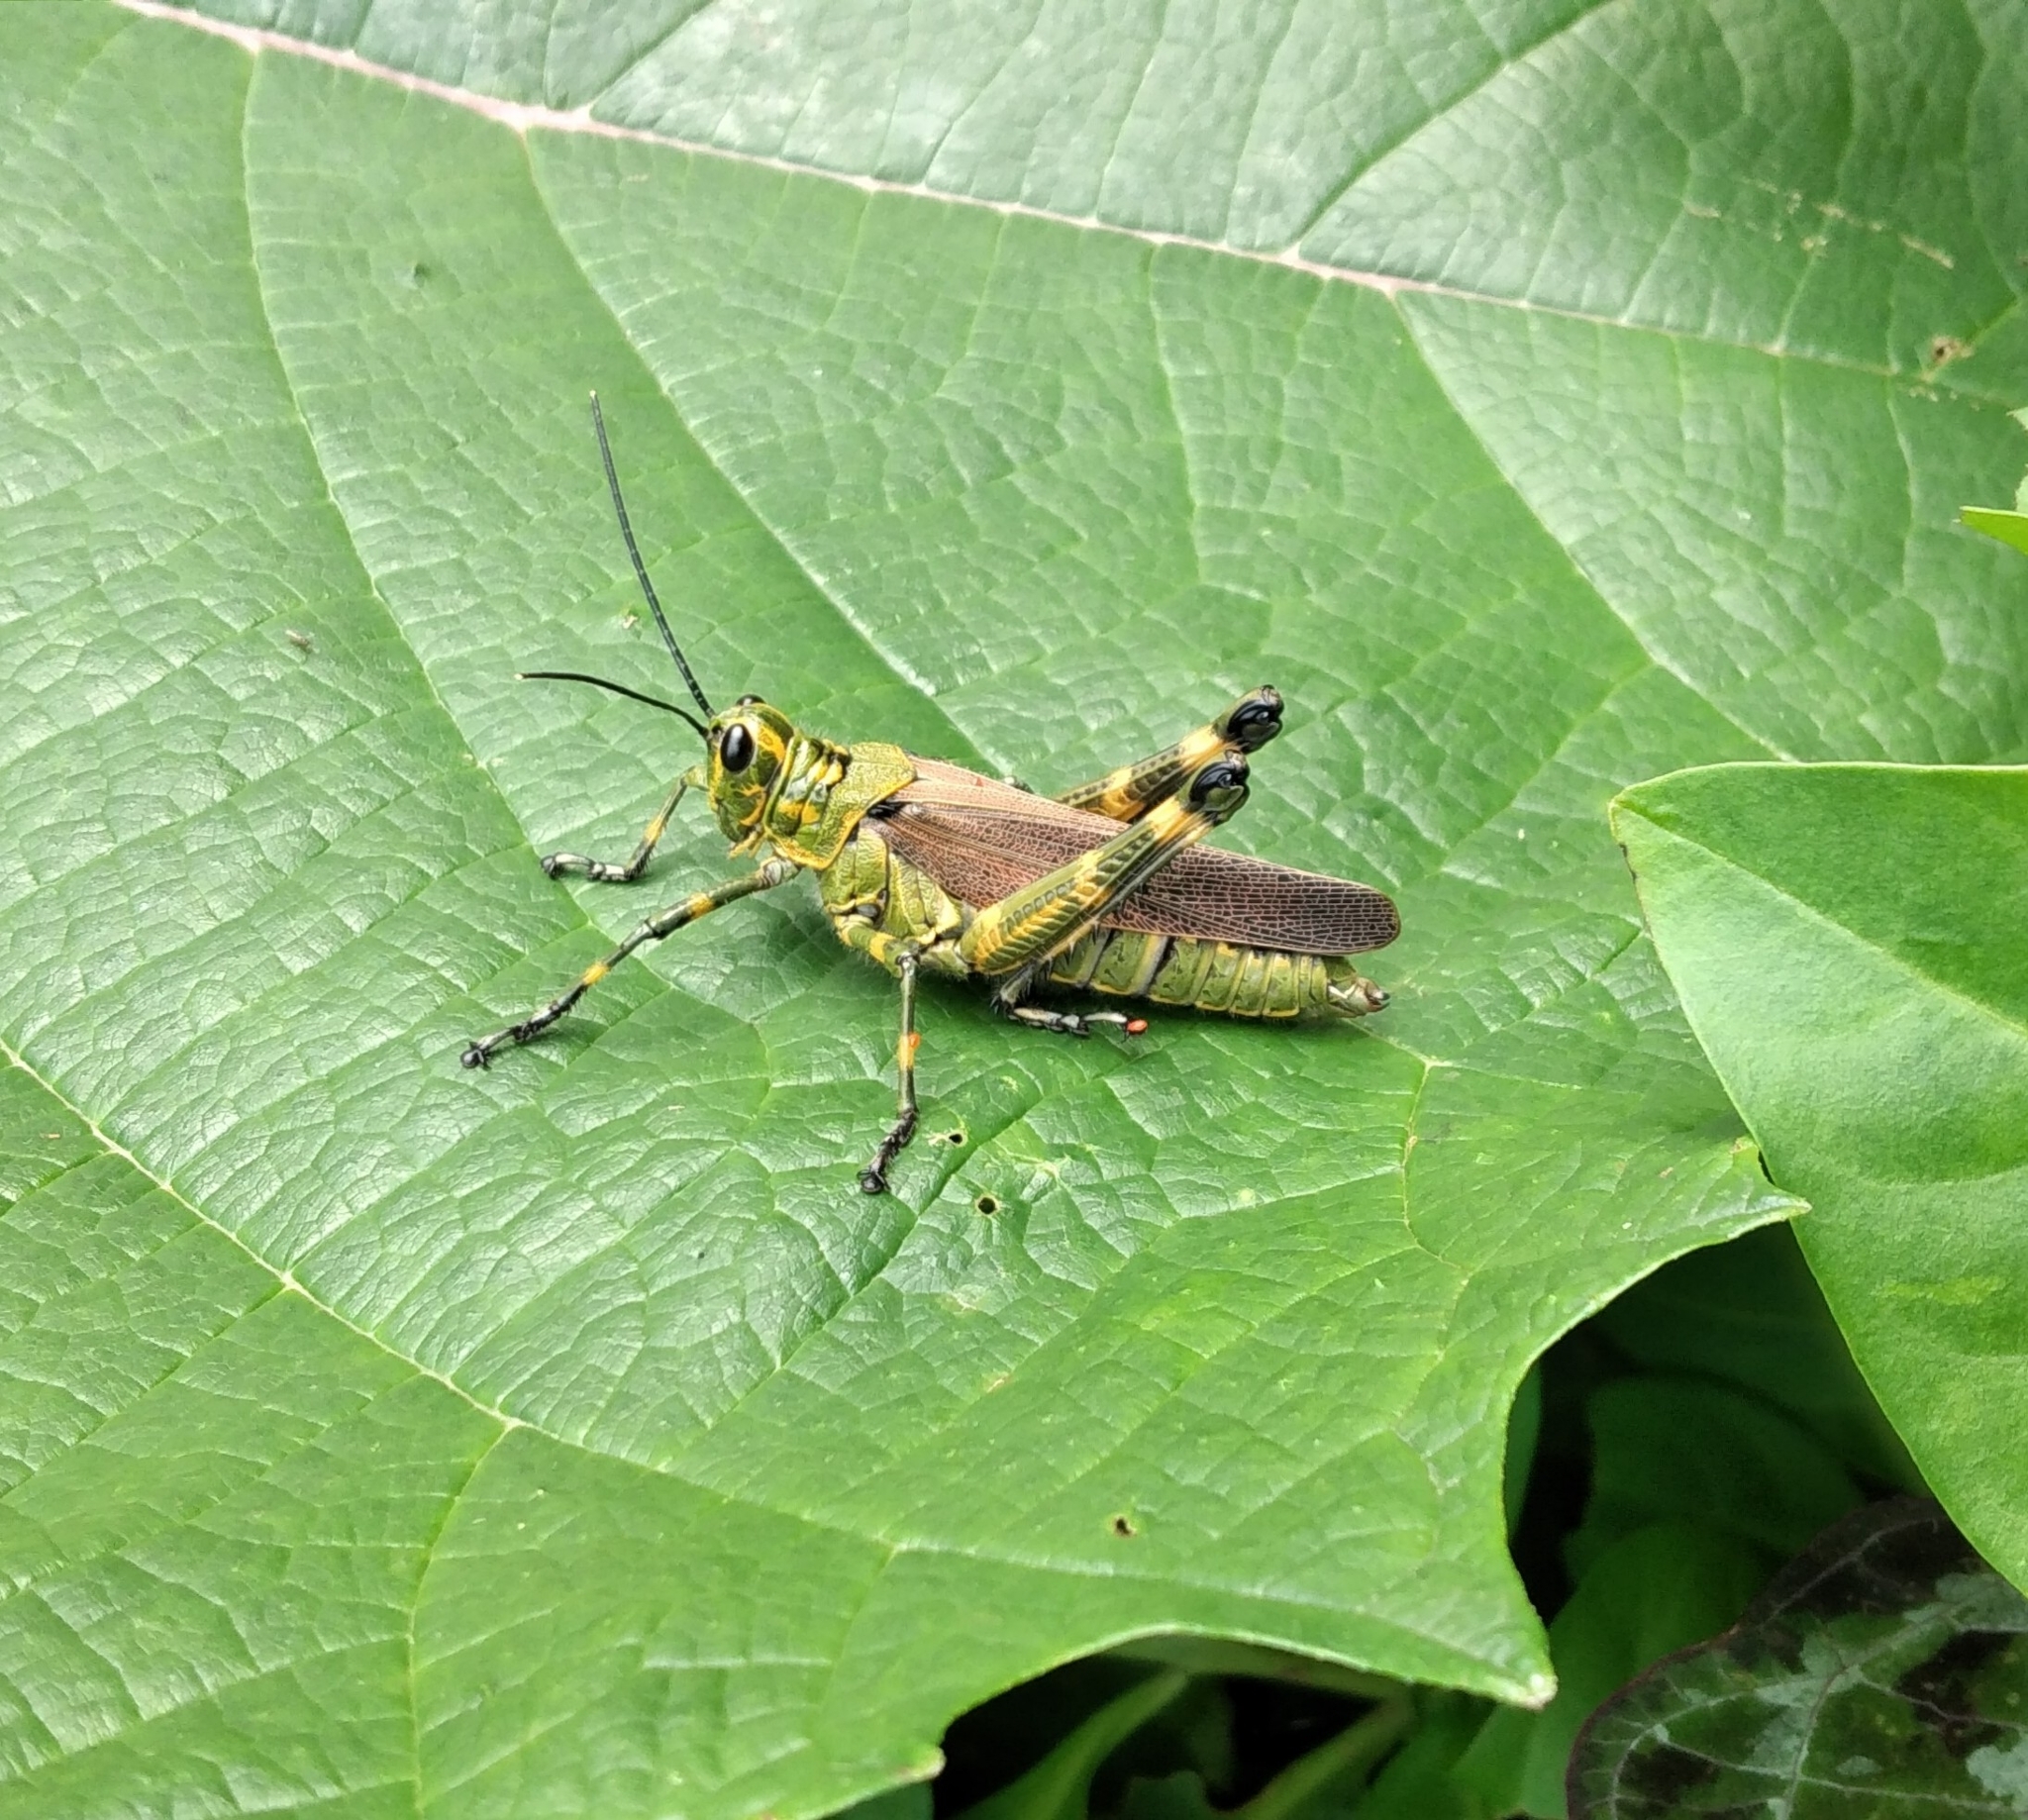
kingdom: Animalia
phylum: Arthropoda
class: Insecta
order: Orthoptera
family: Romaleidae
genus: Chromacris
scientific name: Chromacris speciosa
